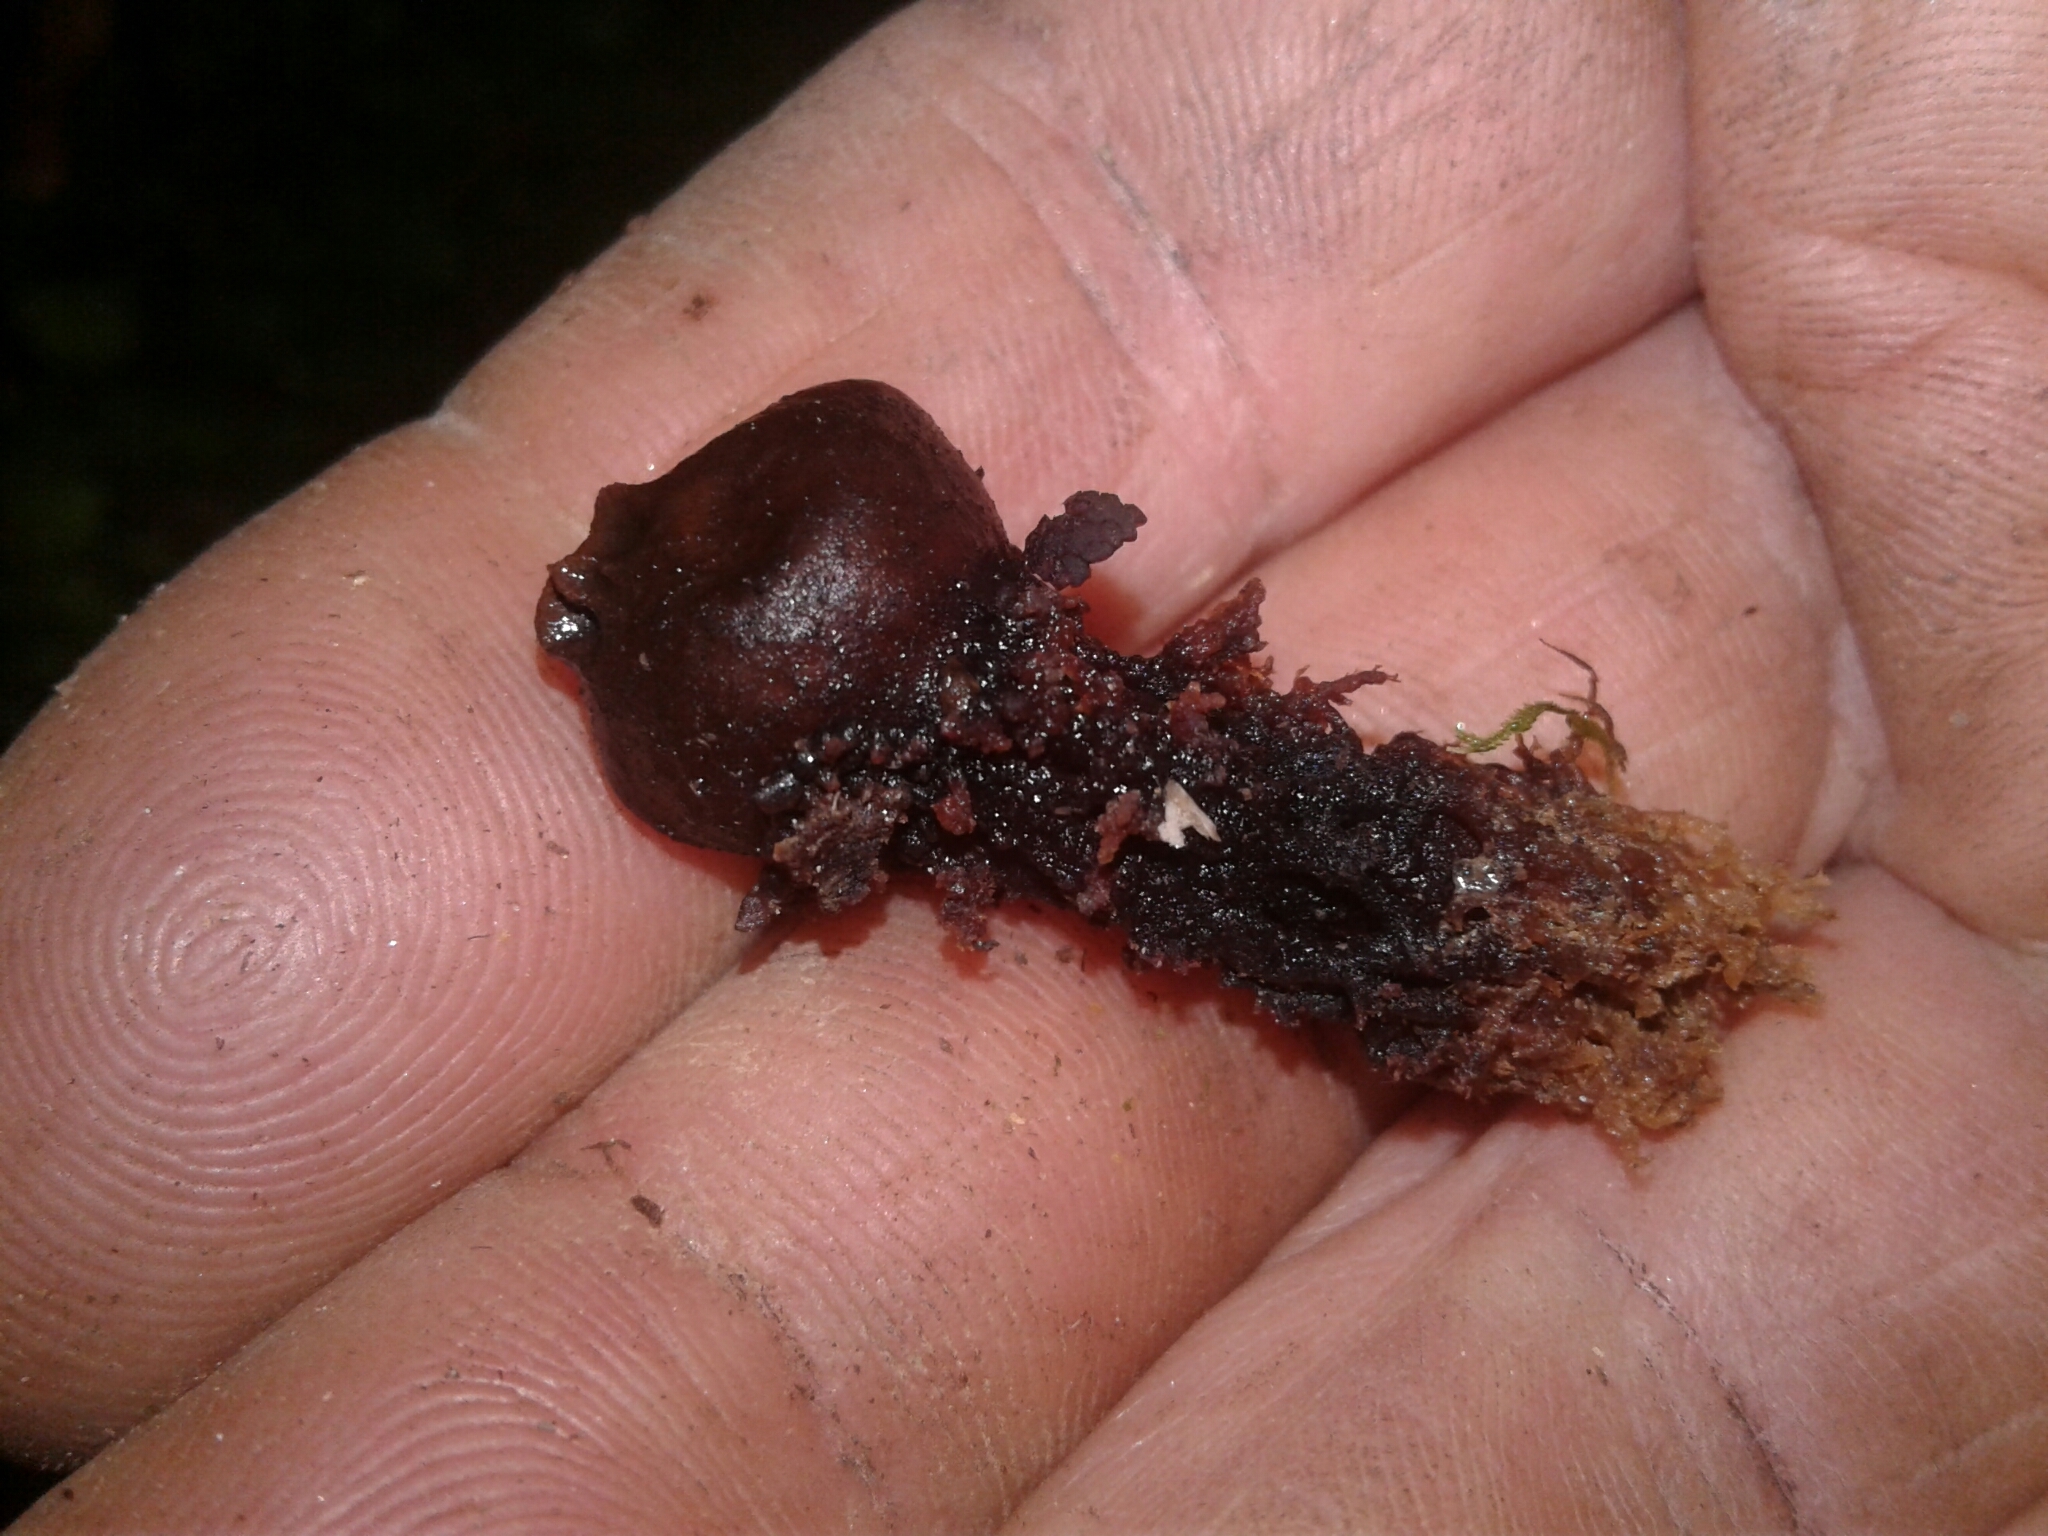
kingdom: Fungi
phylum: Basidiomycota
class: Agaricomycetes
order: Boletales
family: Calostomataceae
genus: Calostoma
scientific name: Calostoma fuscum
